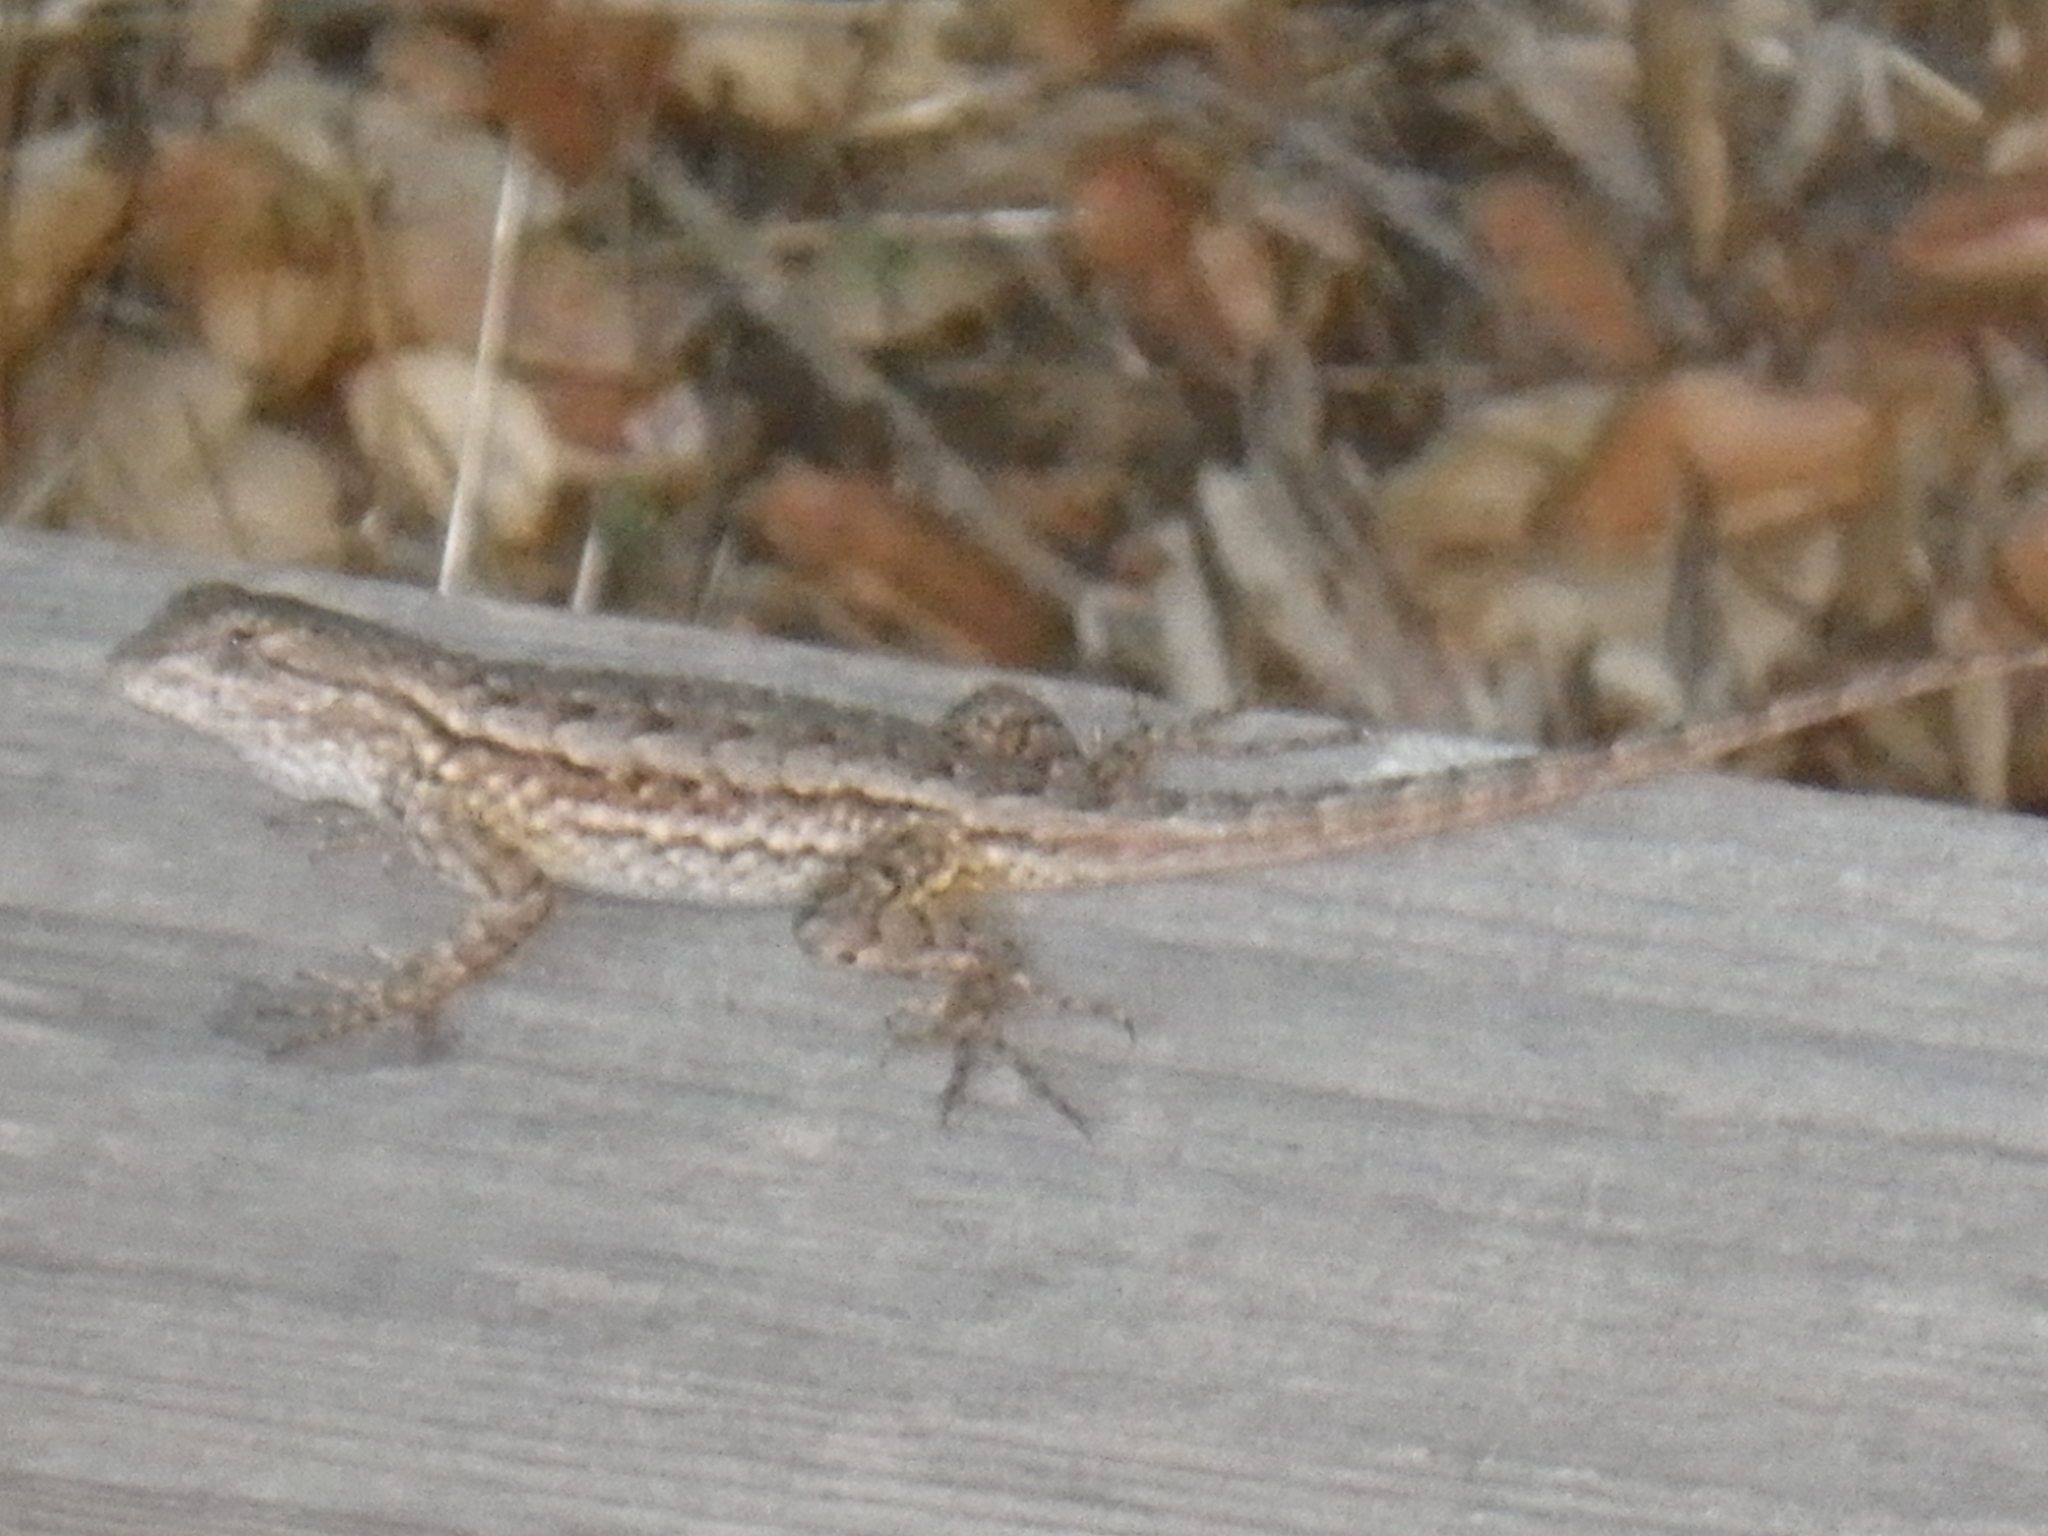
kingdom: Animalia
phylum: Chordata
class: Squamata
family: Phrynosomatidae
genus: Sceloporus
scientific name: Sceloporus occidentalis
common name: Western fence lizard
